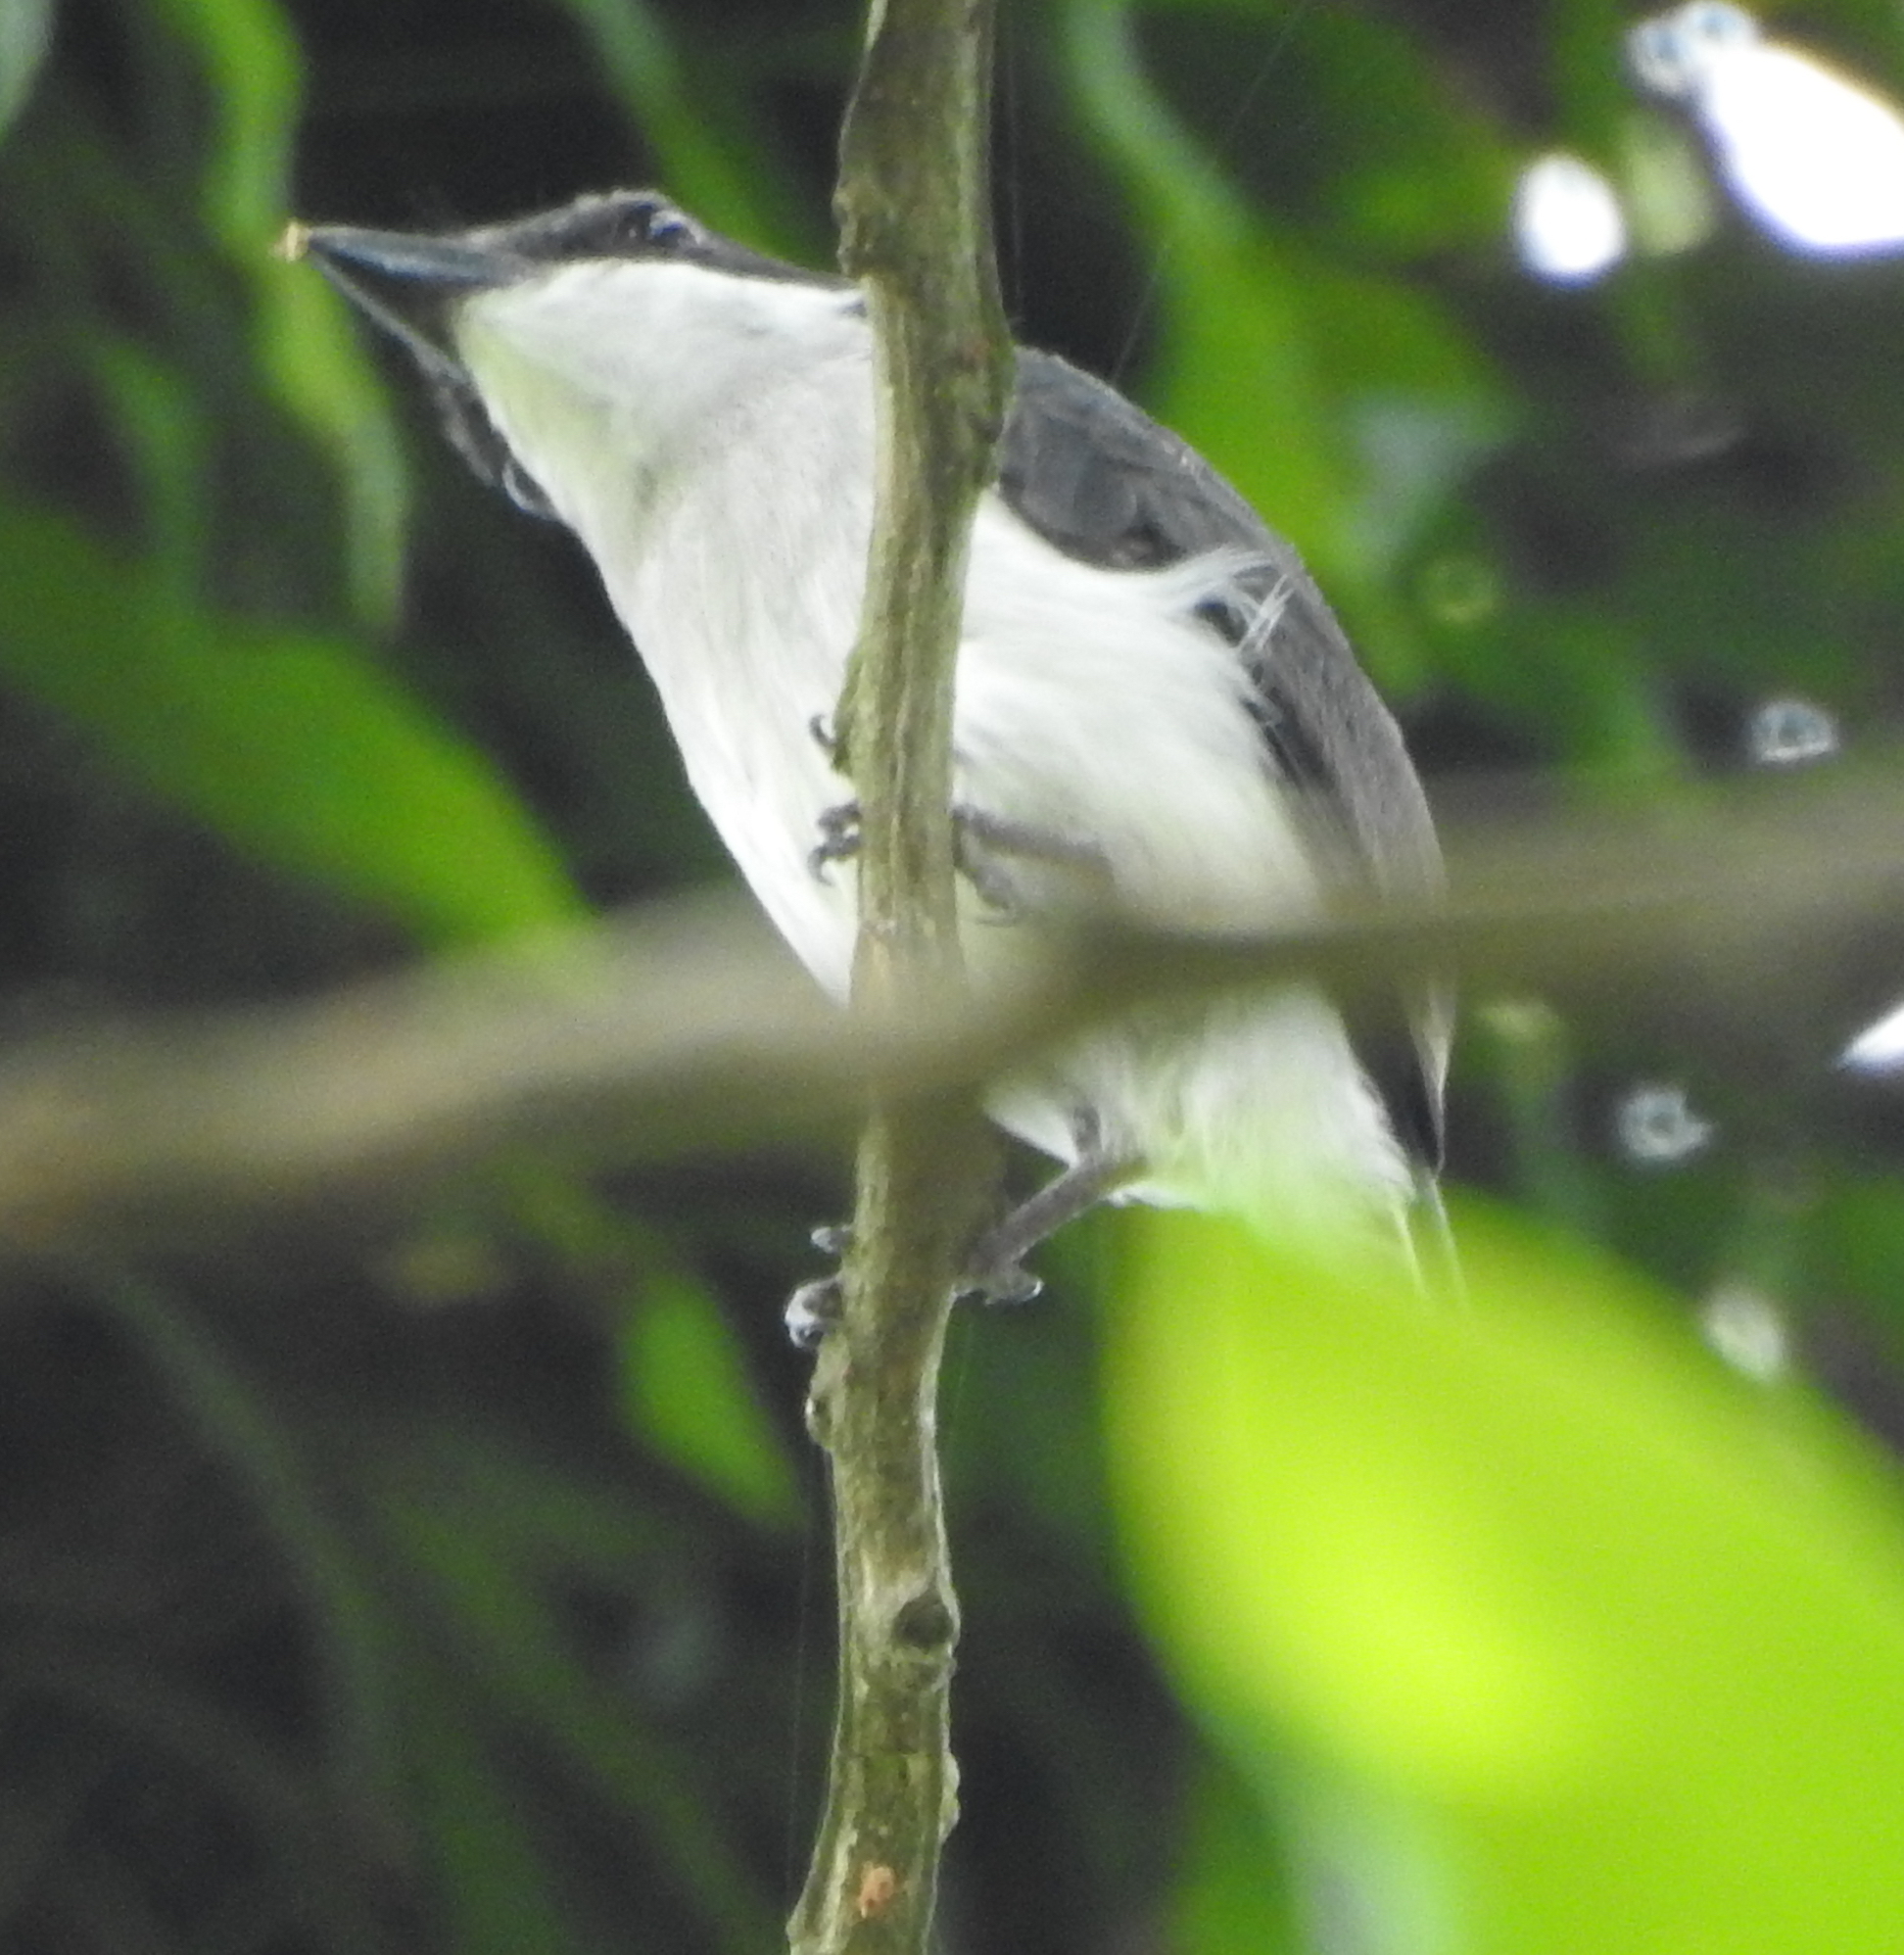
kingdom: Animalia
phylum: Chordata
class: Aves
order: Passeriformes
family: Tephrodornithidae
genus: Hemipus
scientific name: Hemipus hirundinaceus
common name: Black-winged flycatcher-shrike
